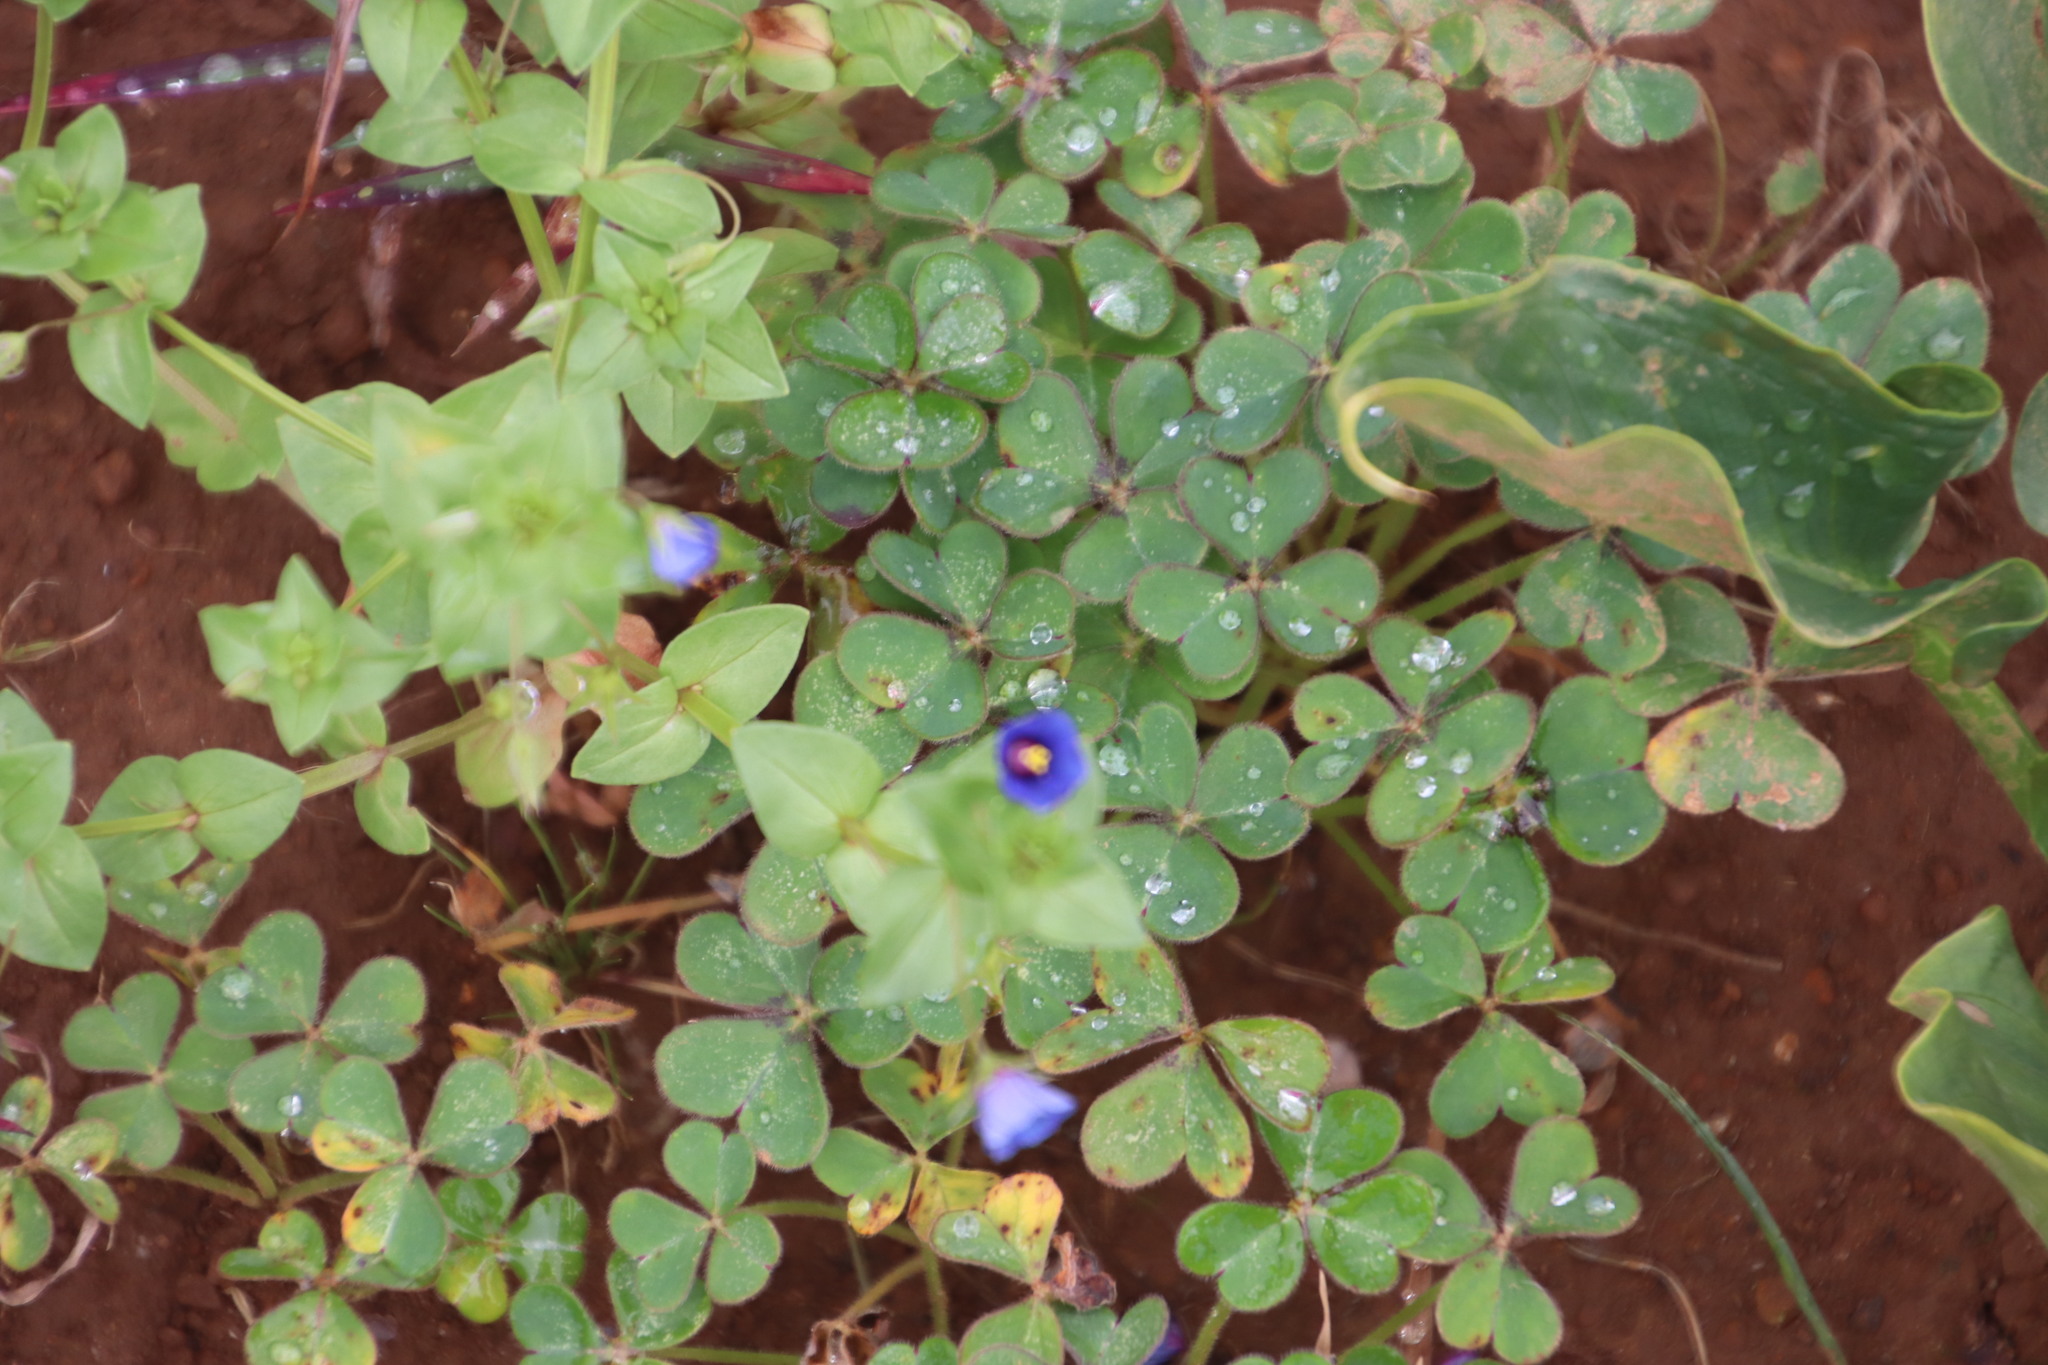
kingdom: Plantae
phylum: Tracheophyta
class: Magnoliopsida
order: Oxalidales
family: Oxalidaceae
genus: Oxalis
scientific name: Oxalis pes-caprae
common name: Bermuda-buttercup
